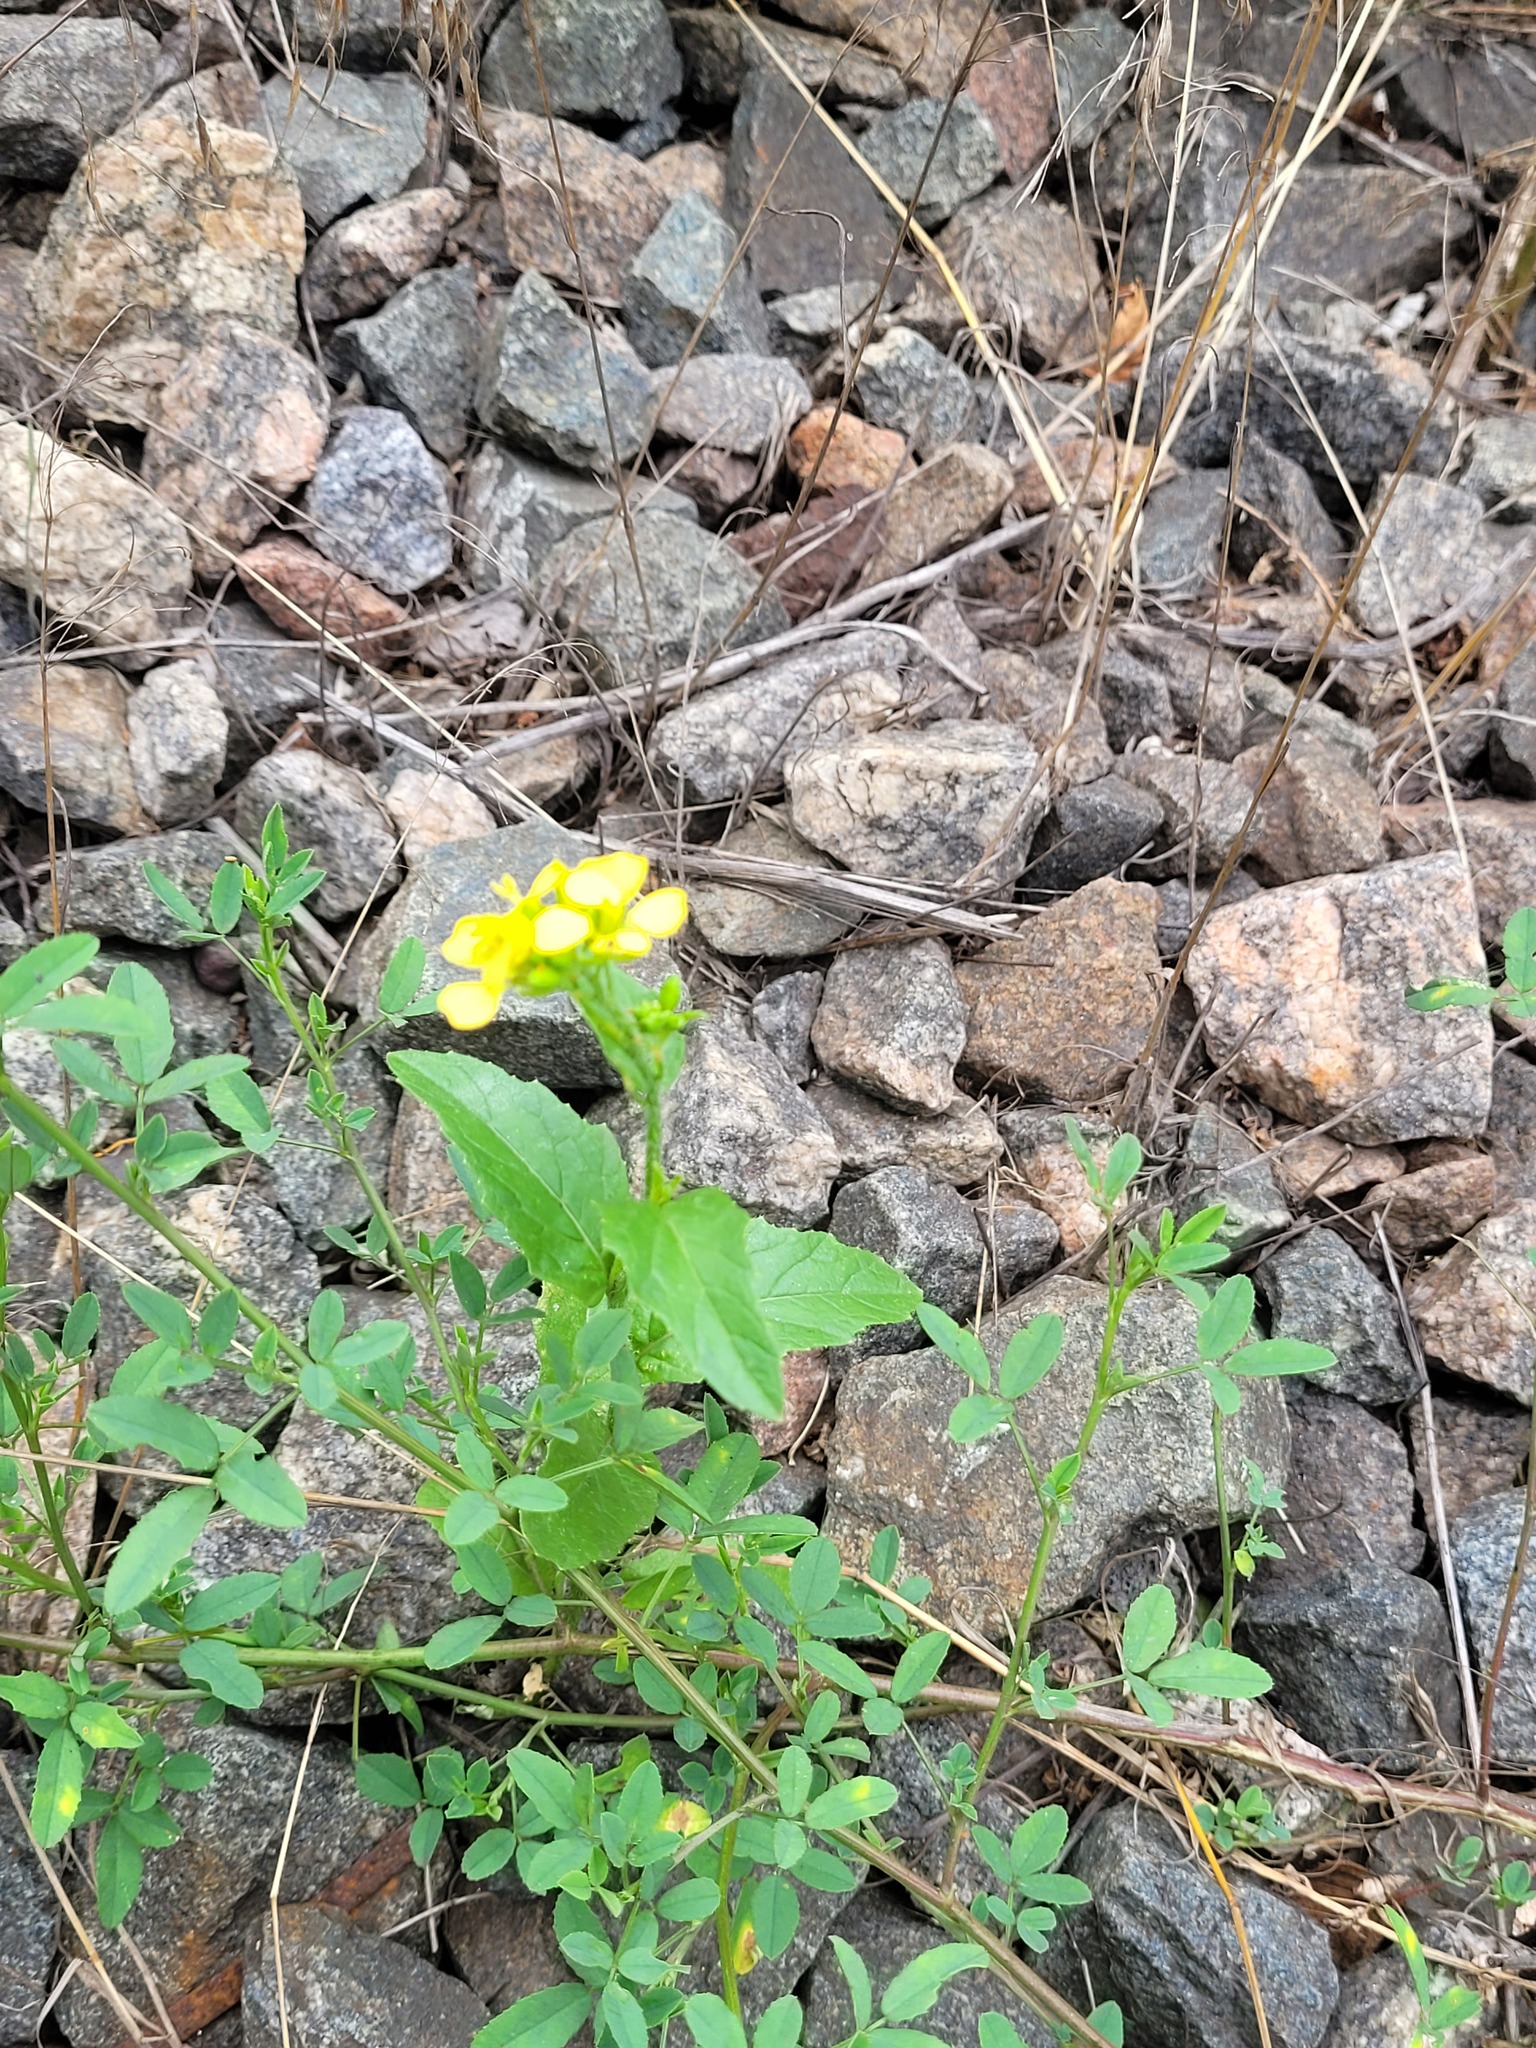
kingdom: Plantae
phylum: Tracheophyta
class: Magnoliopsida
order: Brassicales
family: Brassicaceae
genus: Sinapis
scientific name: Sinapis arvensis
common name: Charlock
